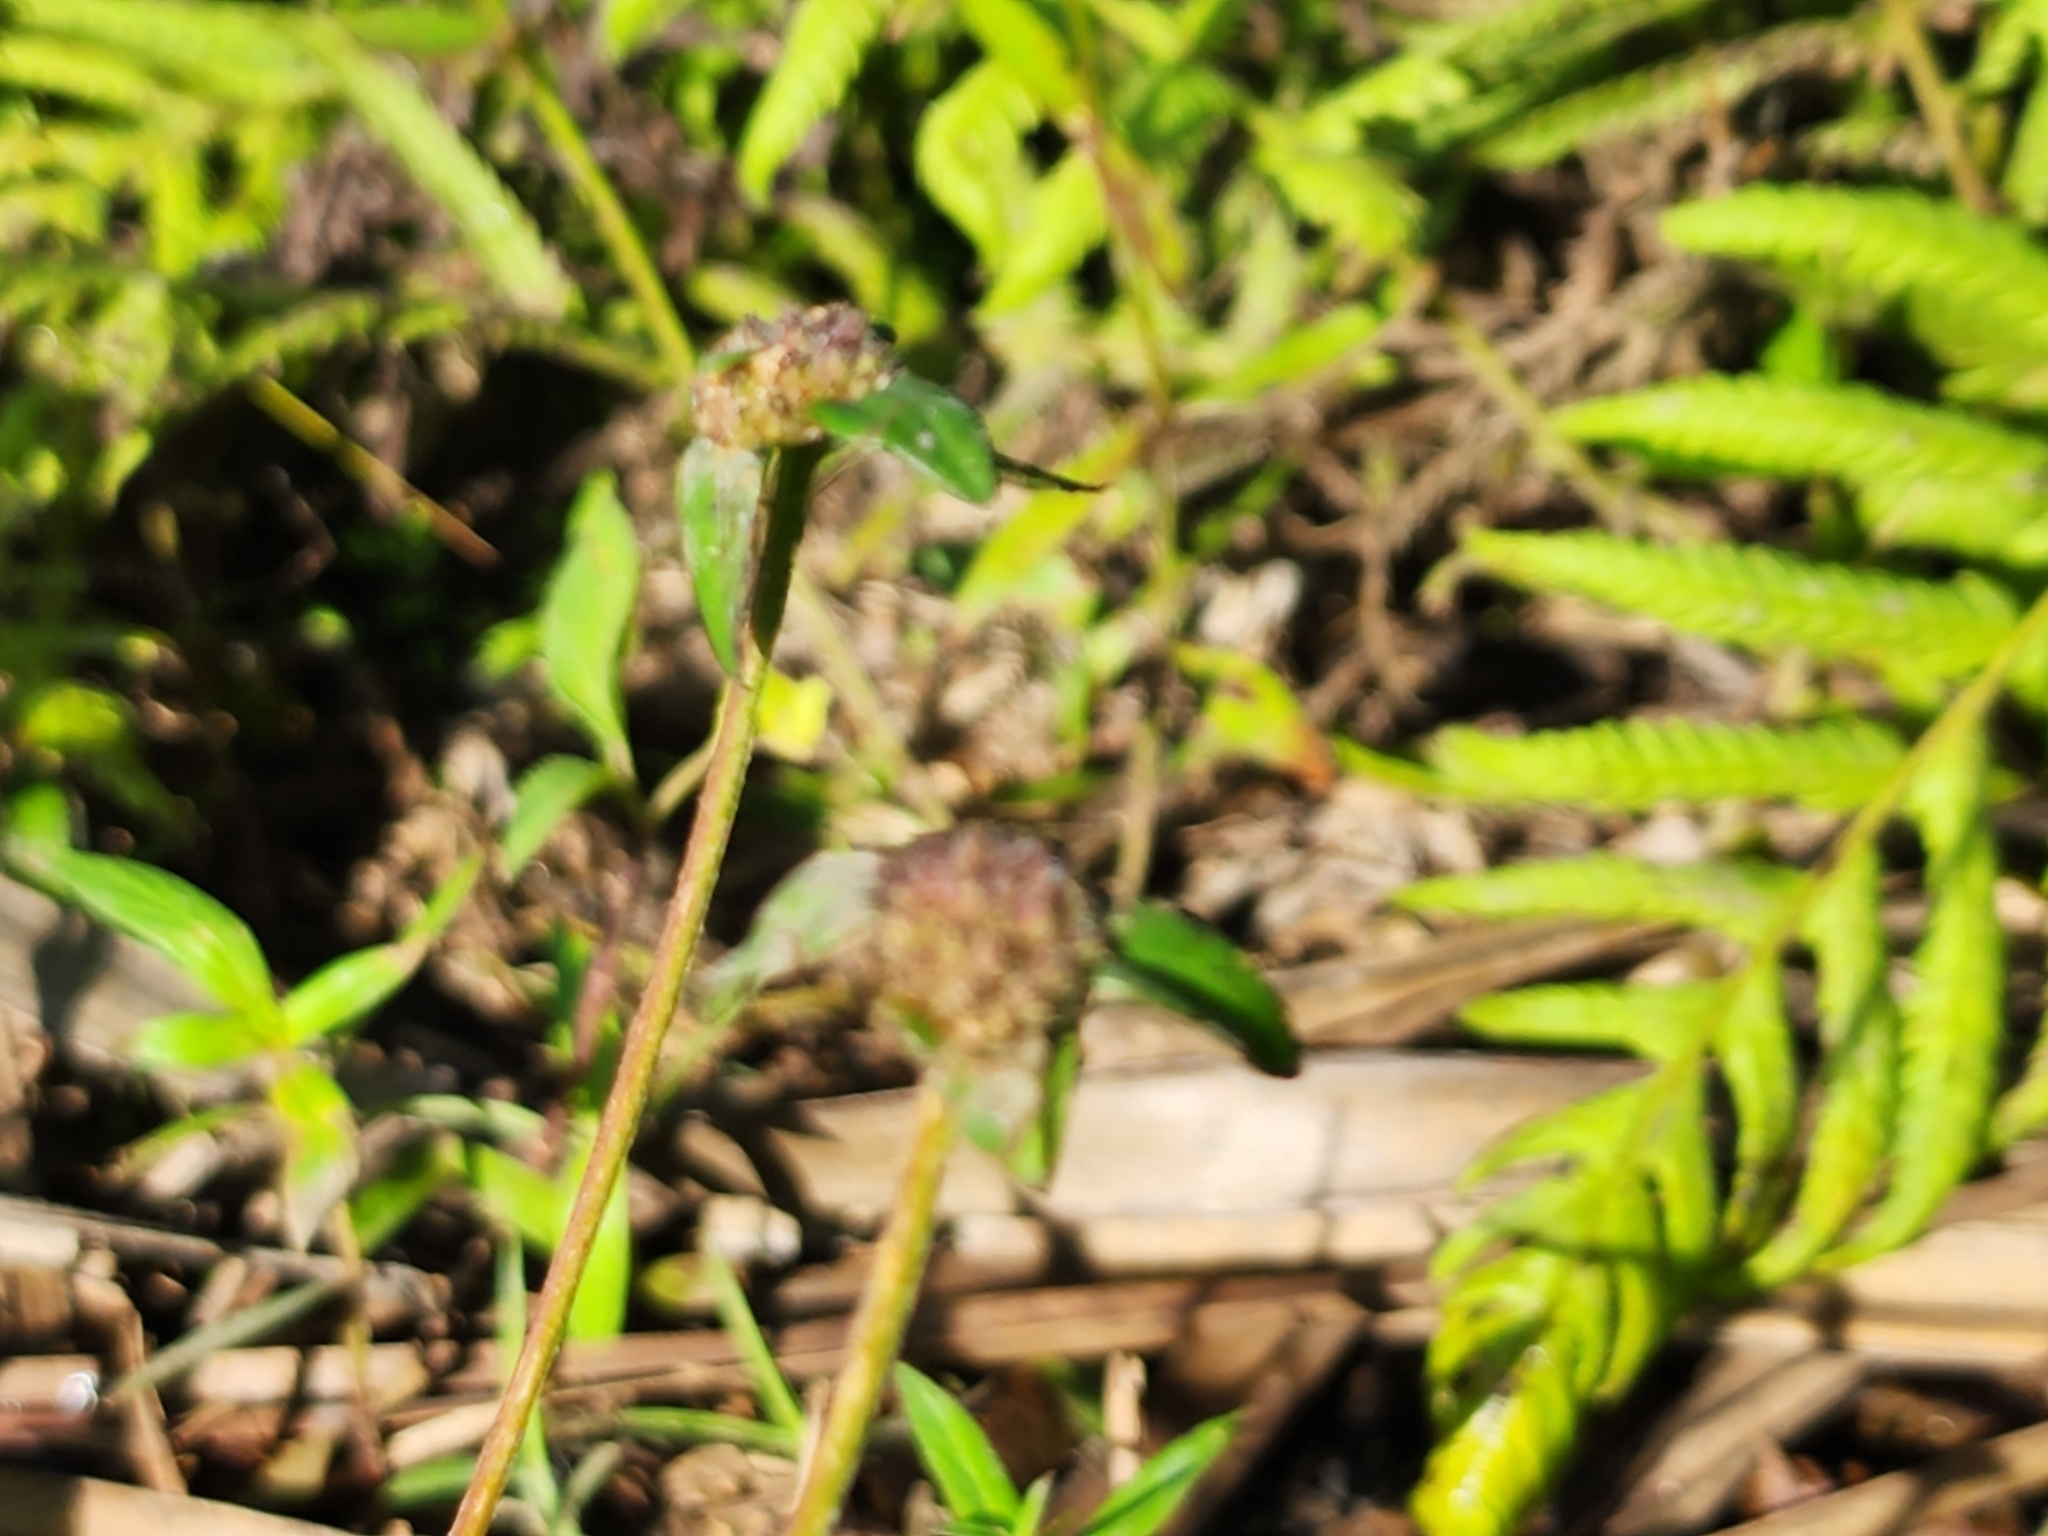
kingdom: Plantae
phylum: Tracheophyta
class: Magnoliopsida
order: Gentianales
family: Rubiaceae
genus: Spermacoce
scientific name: Spermacoce remota
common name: Woodland false buttonweed
